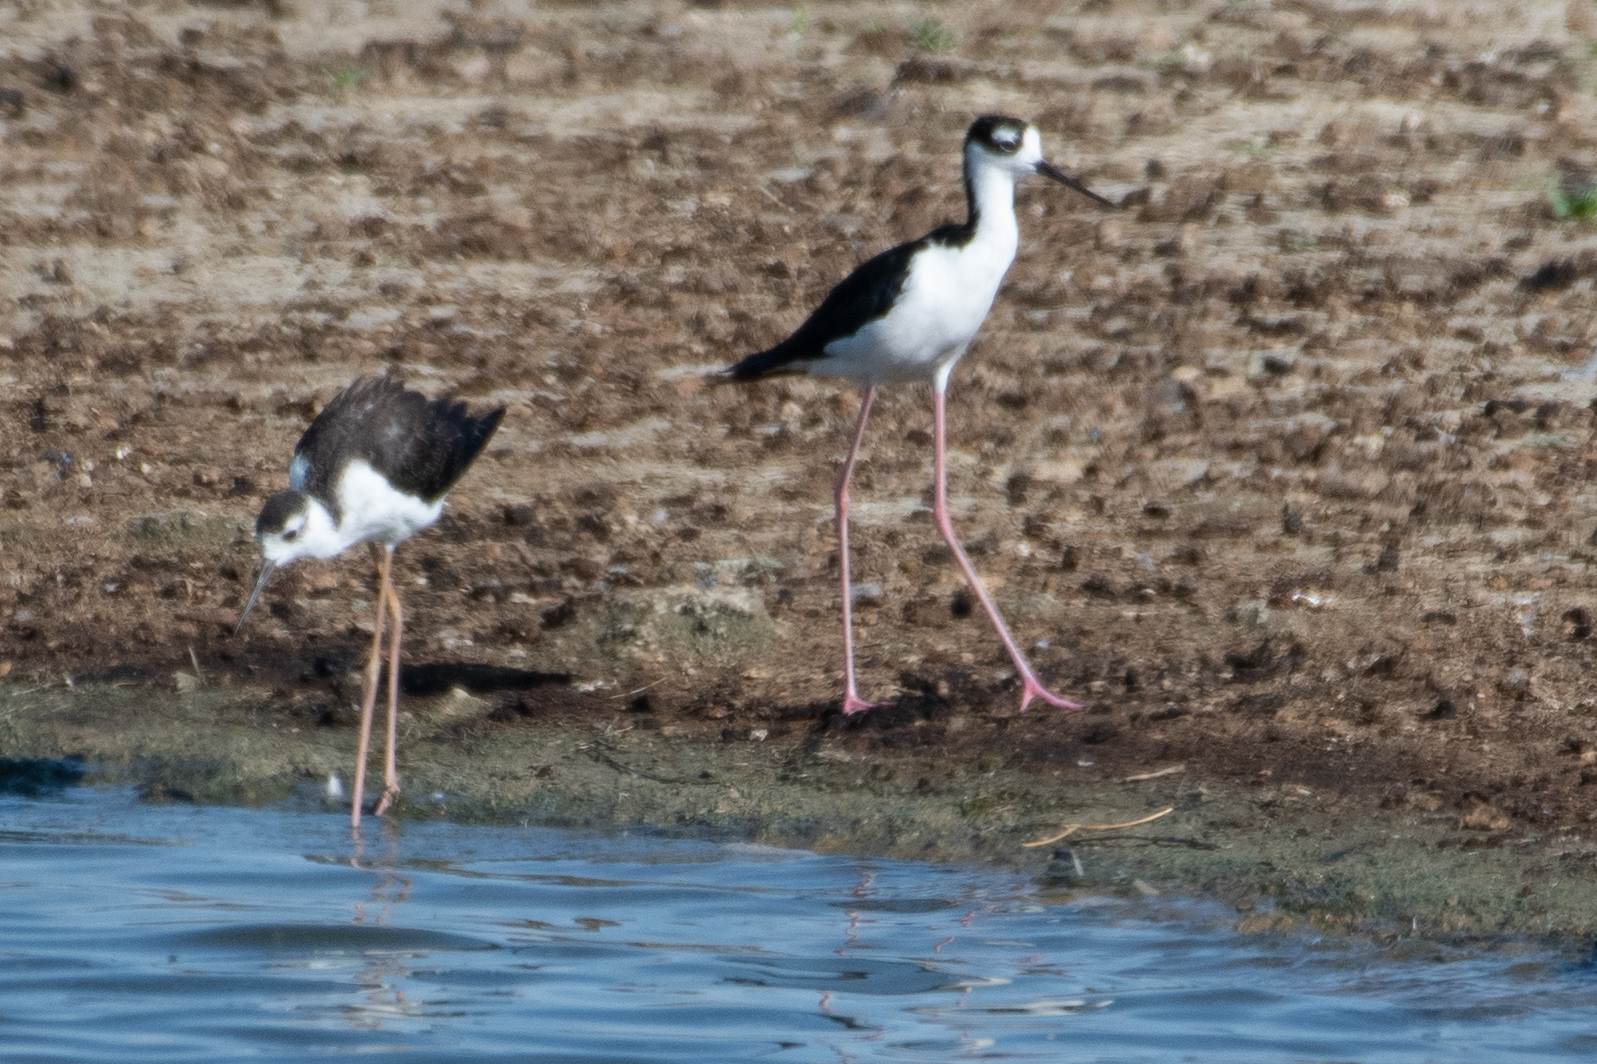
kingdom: Animalia
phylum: Chordata
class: Aves
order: Charadriiformes
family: Recurvirostridae
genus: Himantopus
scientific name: Himantopus mexicanus
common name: Black-necked stilt
